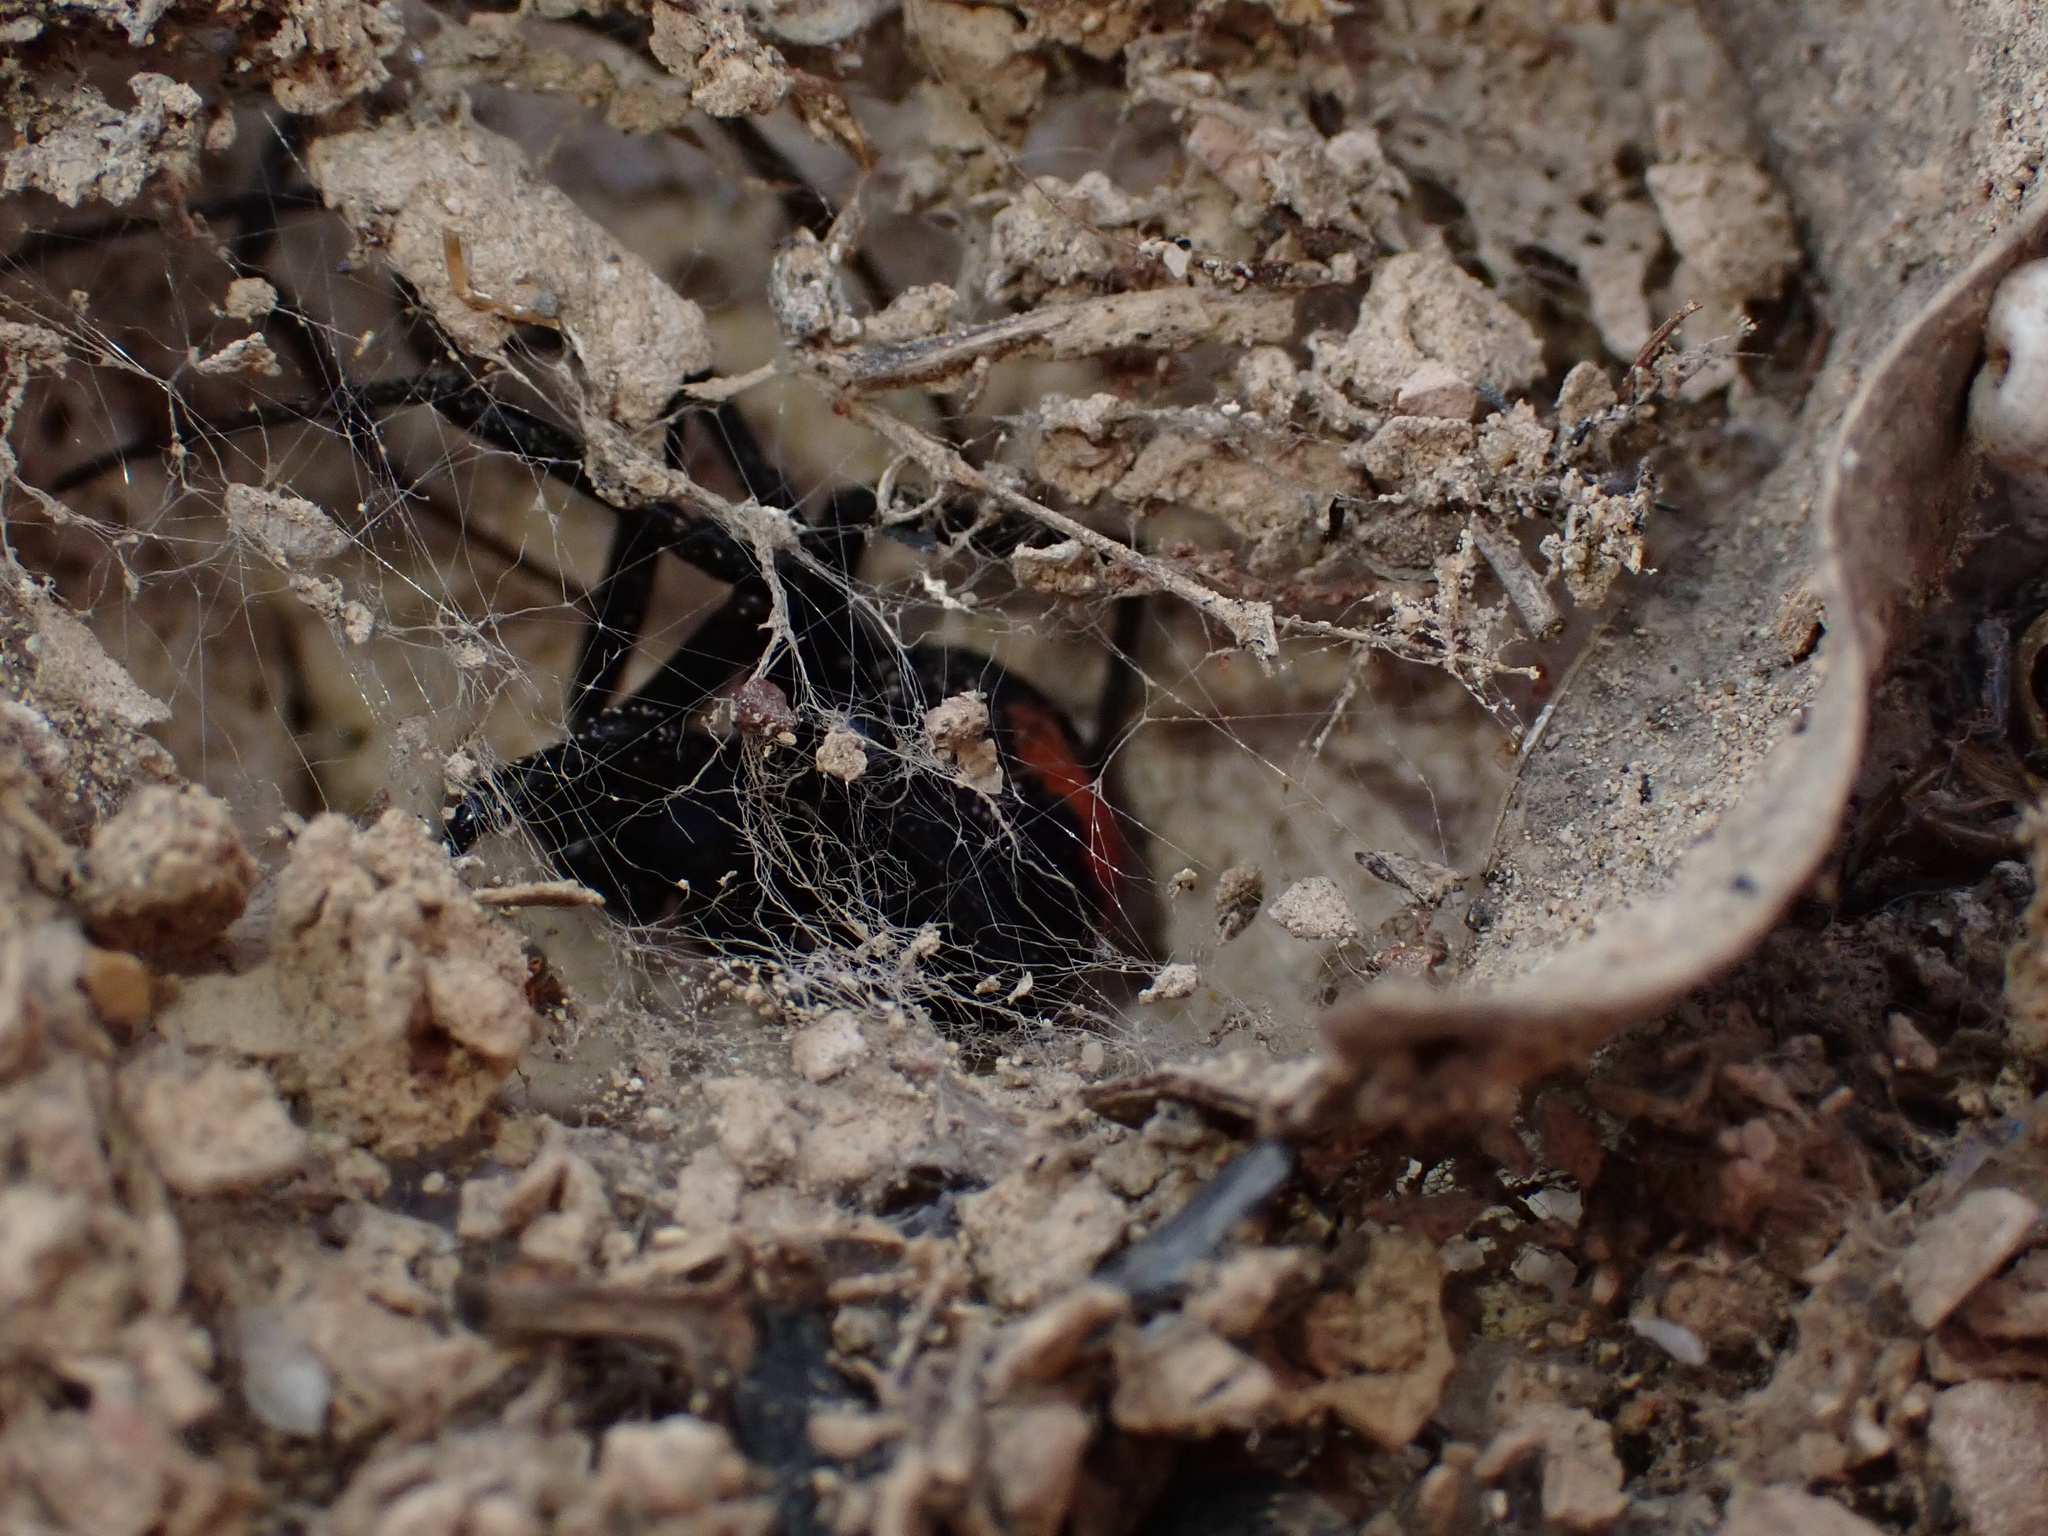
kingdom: Animalia
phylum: Arthropoda
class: Arachnida
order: Araneae
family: Theridiidae
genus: Latrodectus
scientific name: Latrodectus cinctus
